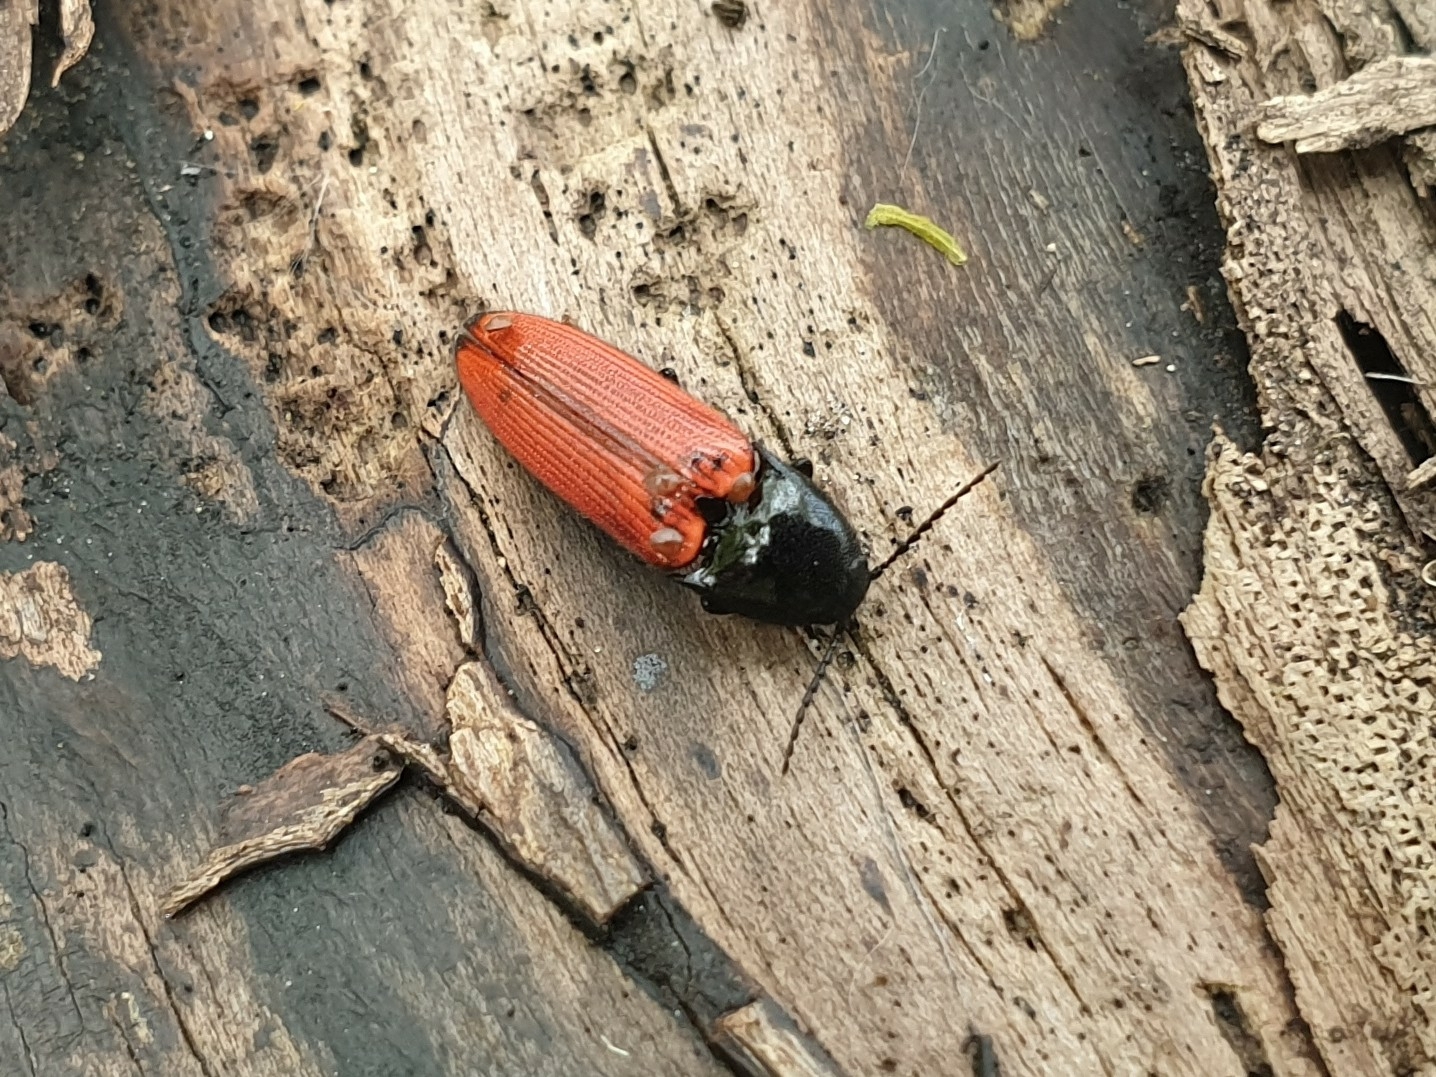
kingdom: Animalia
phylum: Arthropoda
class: Insecta
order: Coleoptera
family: Elateridae
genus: Ampedus
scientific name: Ampedus sanguineus
